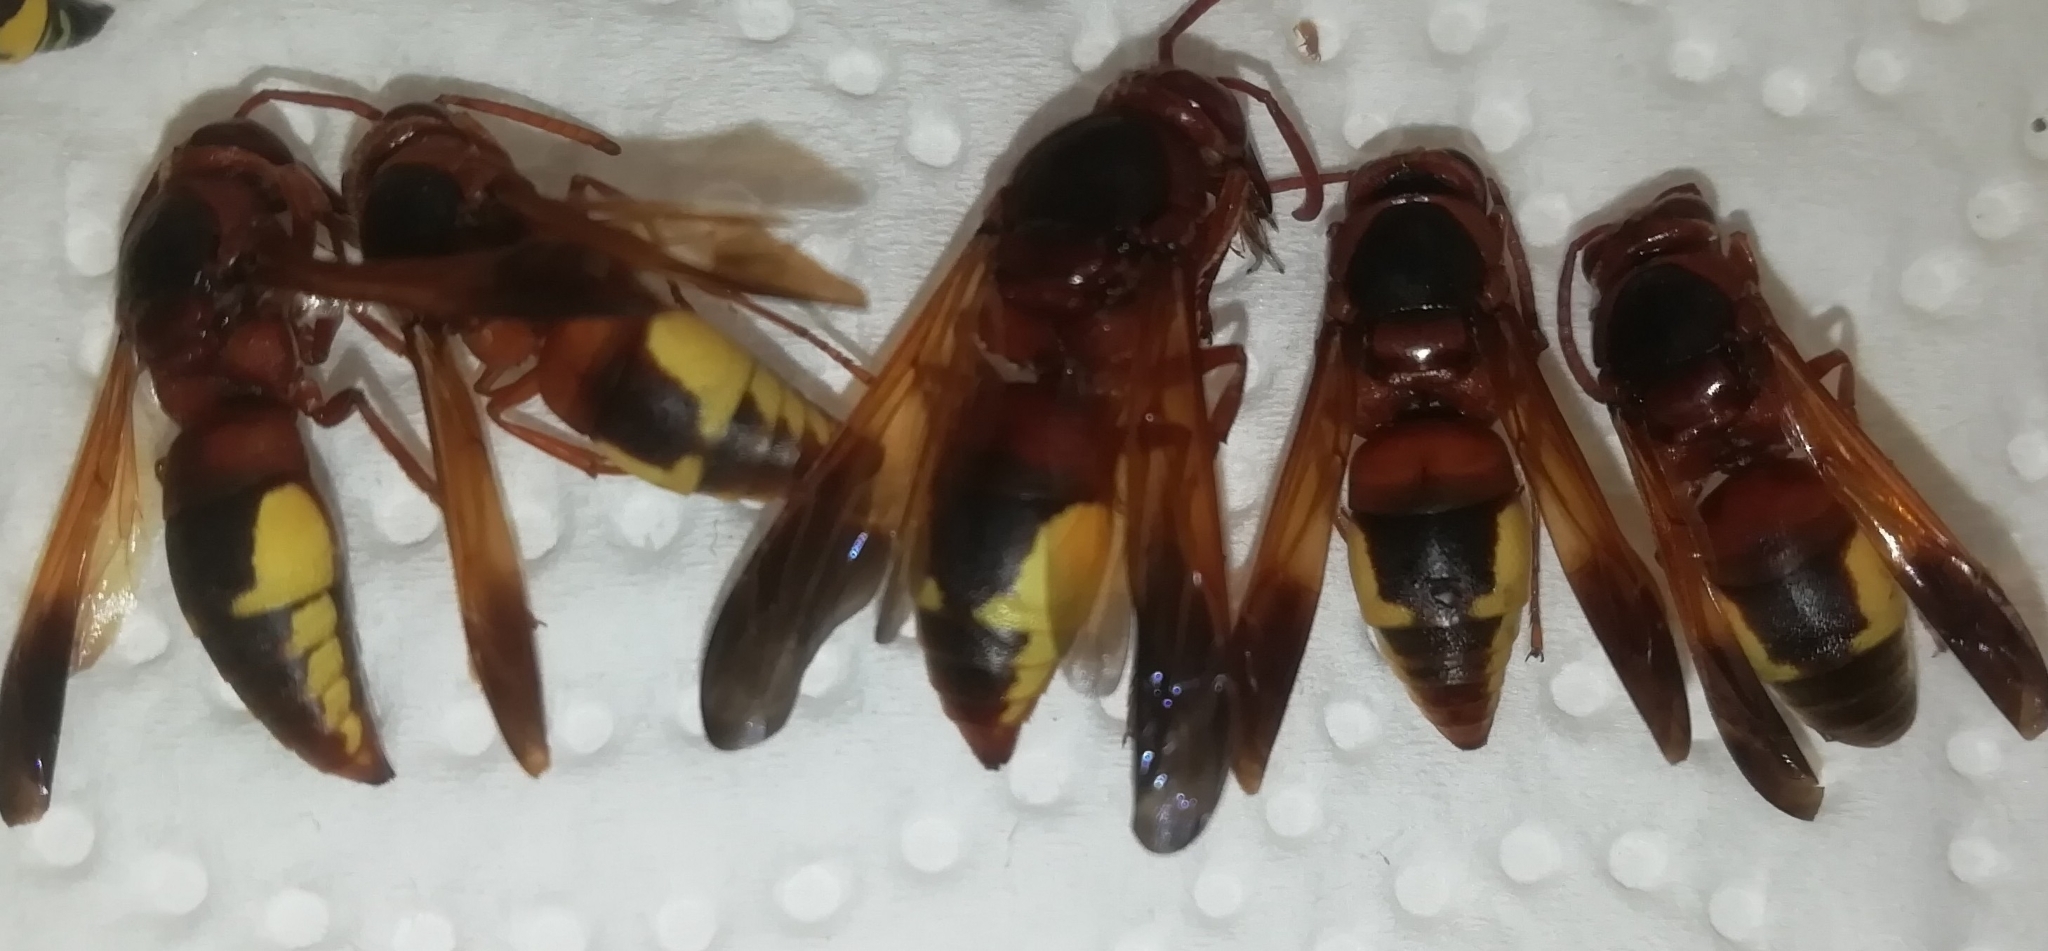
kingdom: Animalia
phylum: Arthropoda
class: Insecta
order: Hymenoptera
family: Eumenidae
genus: Rhynchium
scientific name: Rhynchium oculatum
